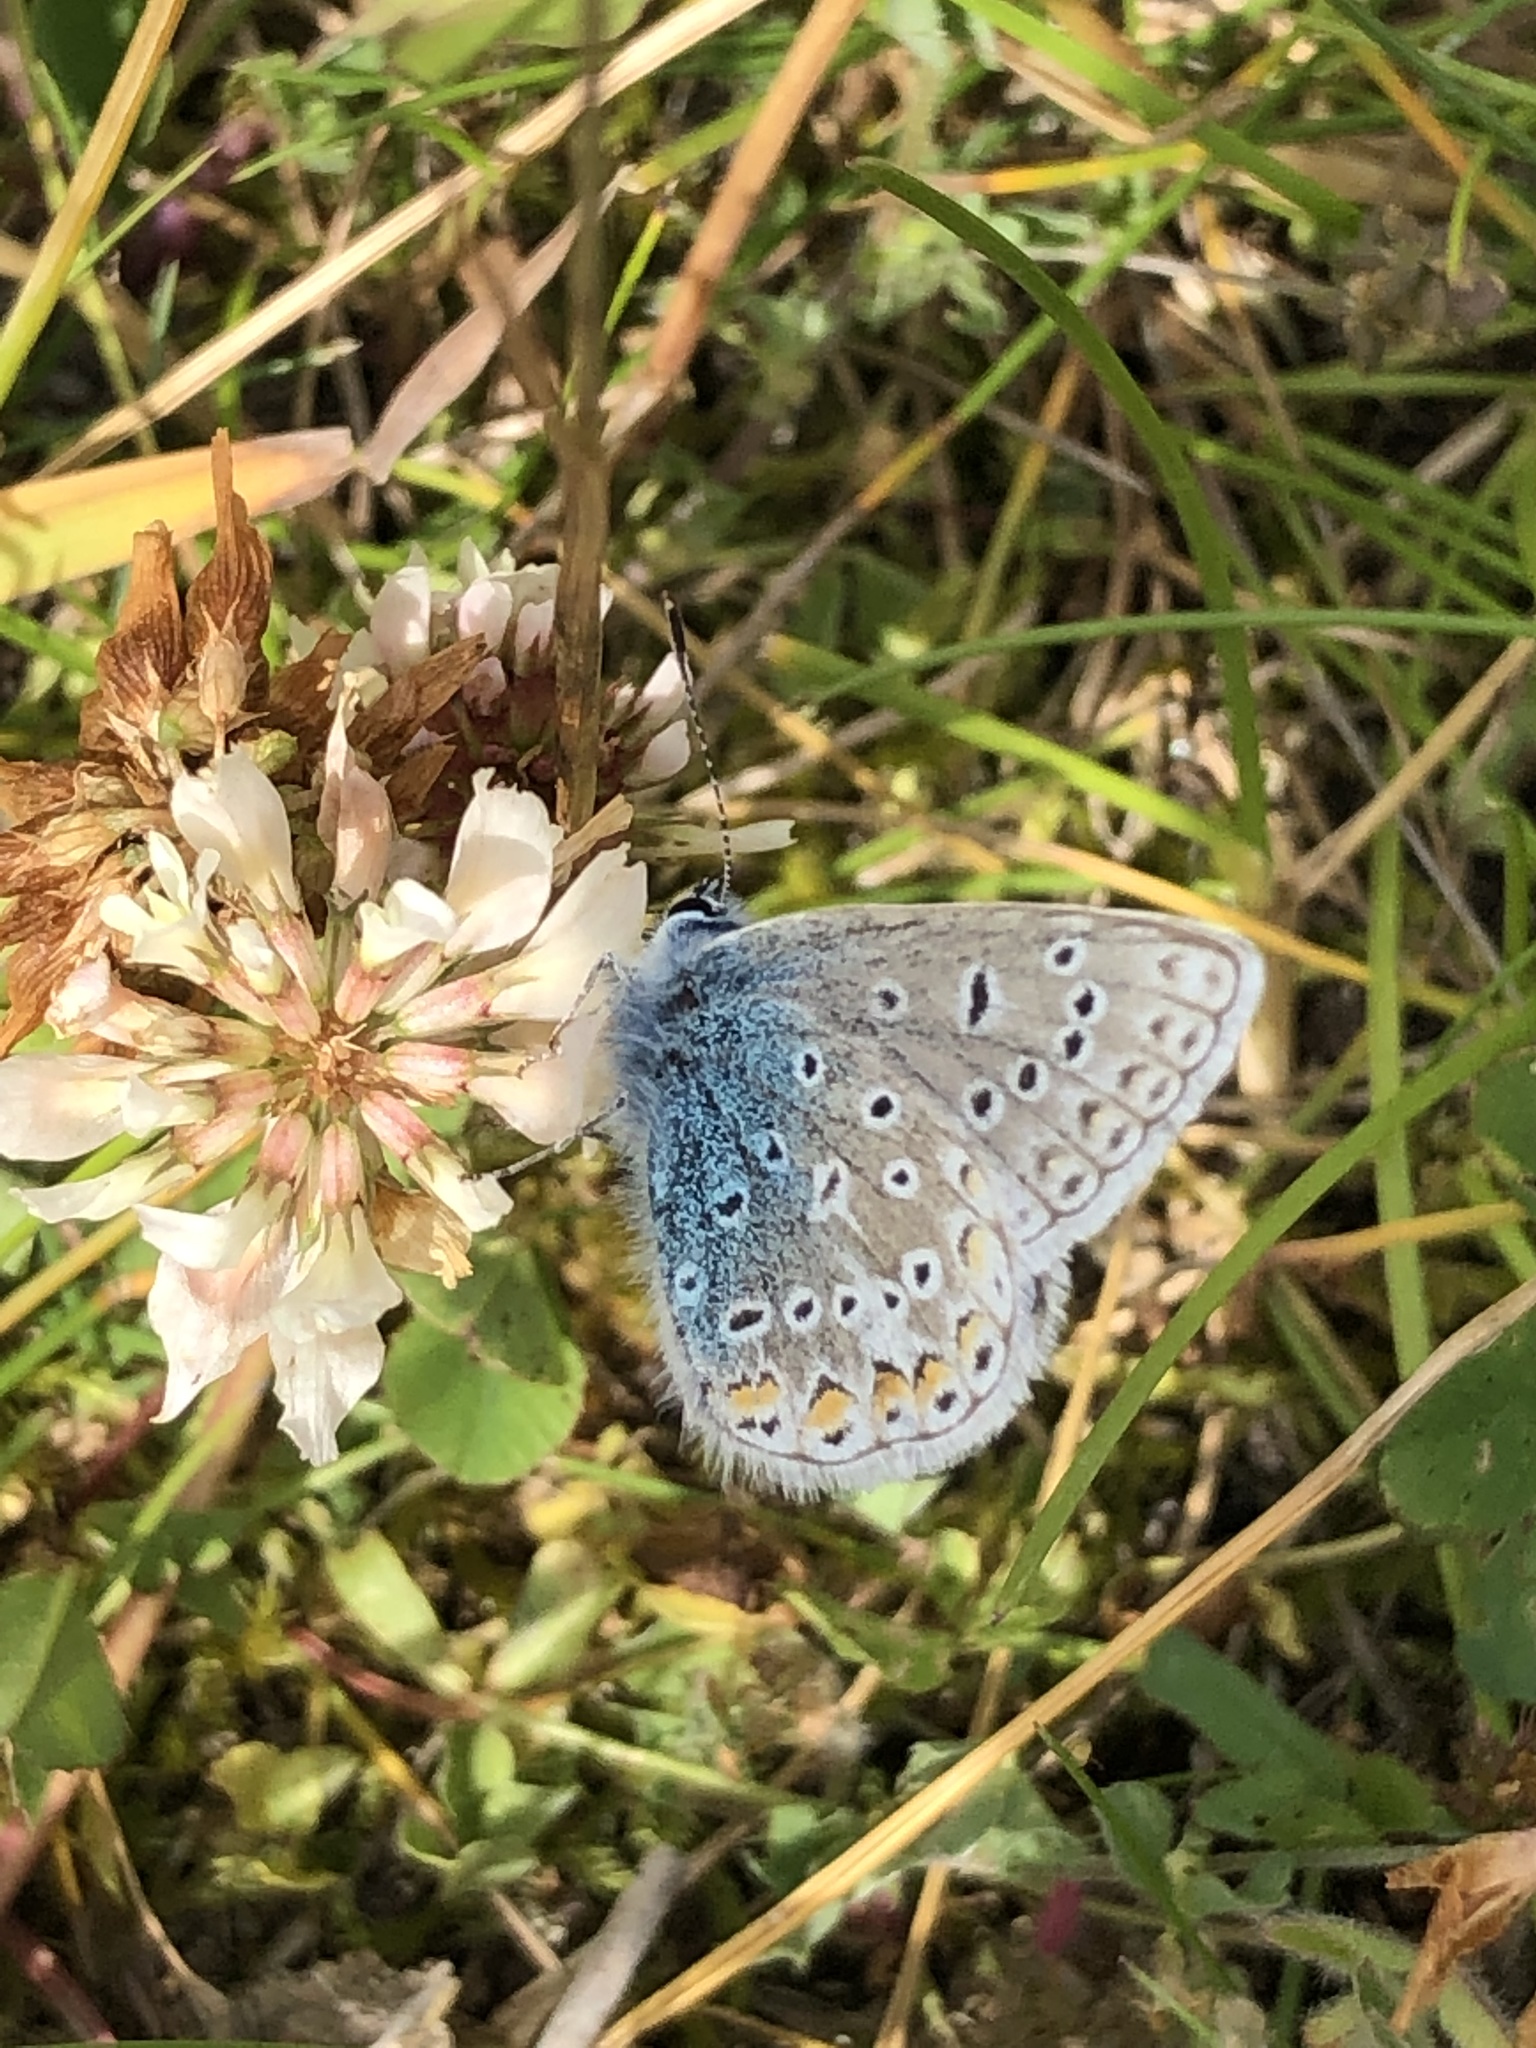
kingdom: Animalia
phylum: Arthropoda
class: Insecta
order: Lepidoptera
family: Lycaenidae
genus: Polyommatus
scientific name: Polyommatus icarus
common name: Common blue
